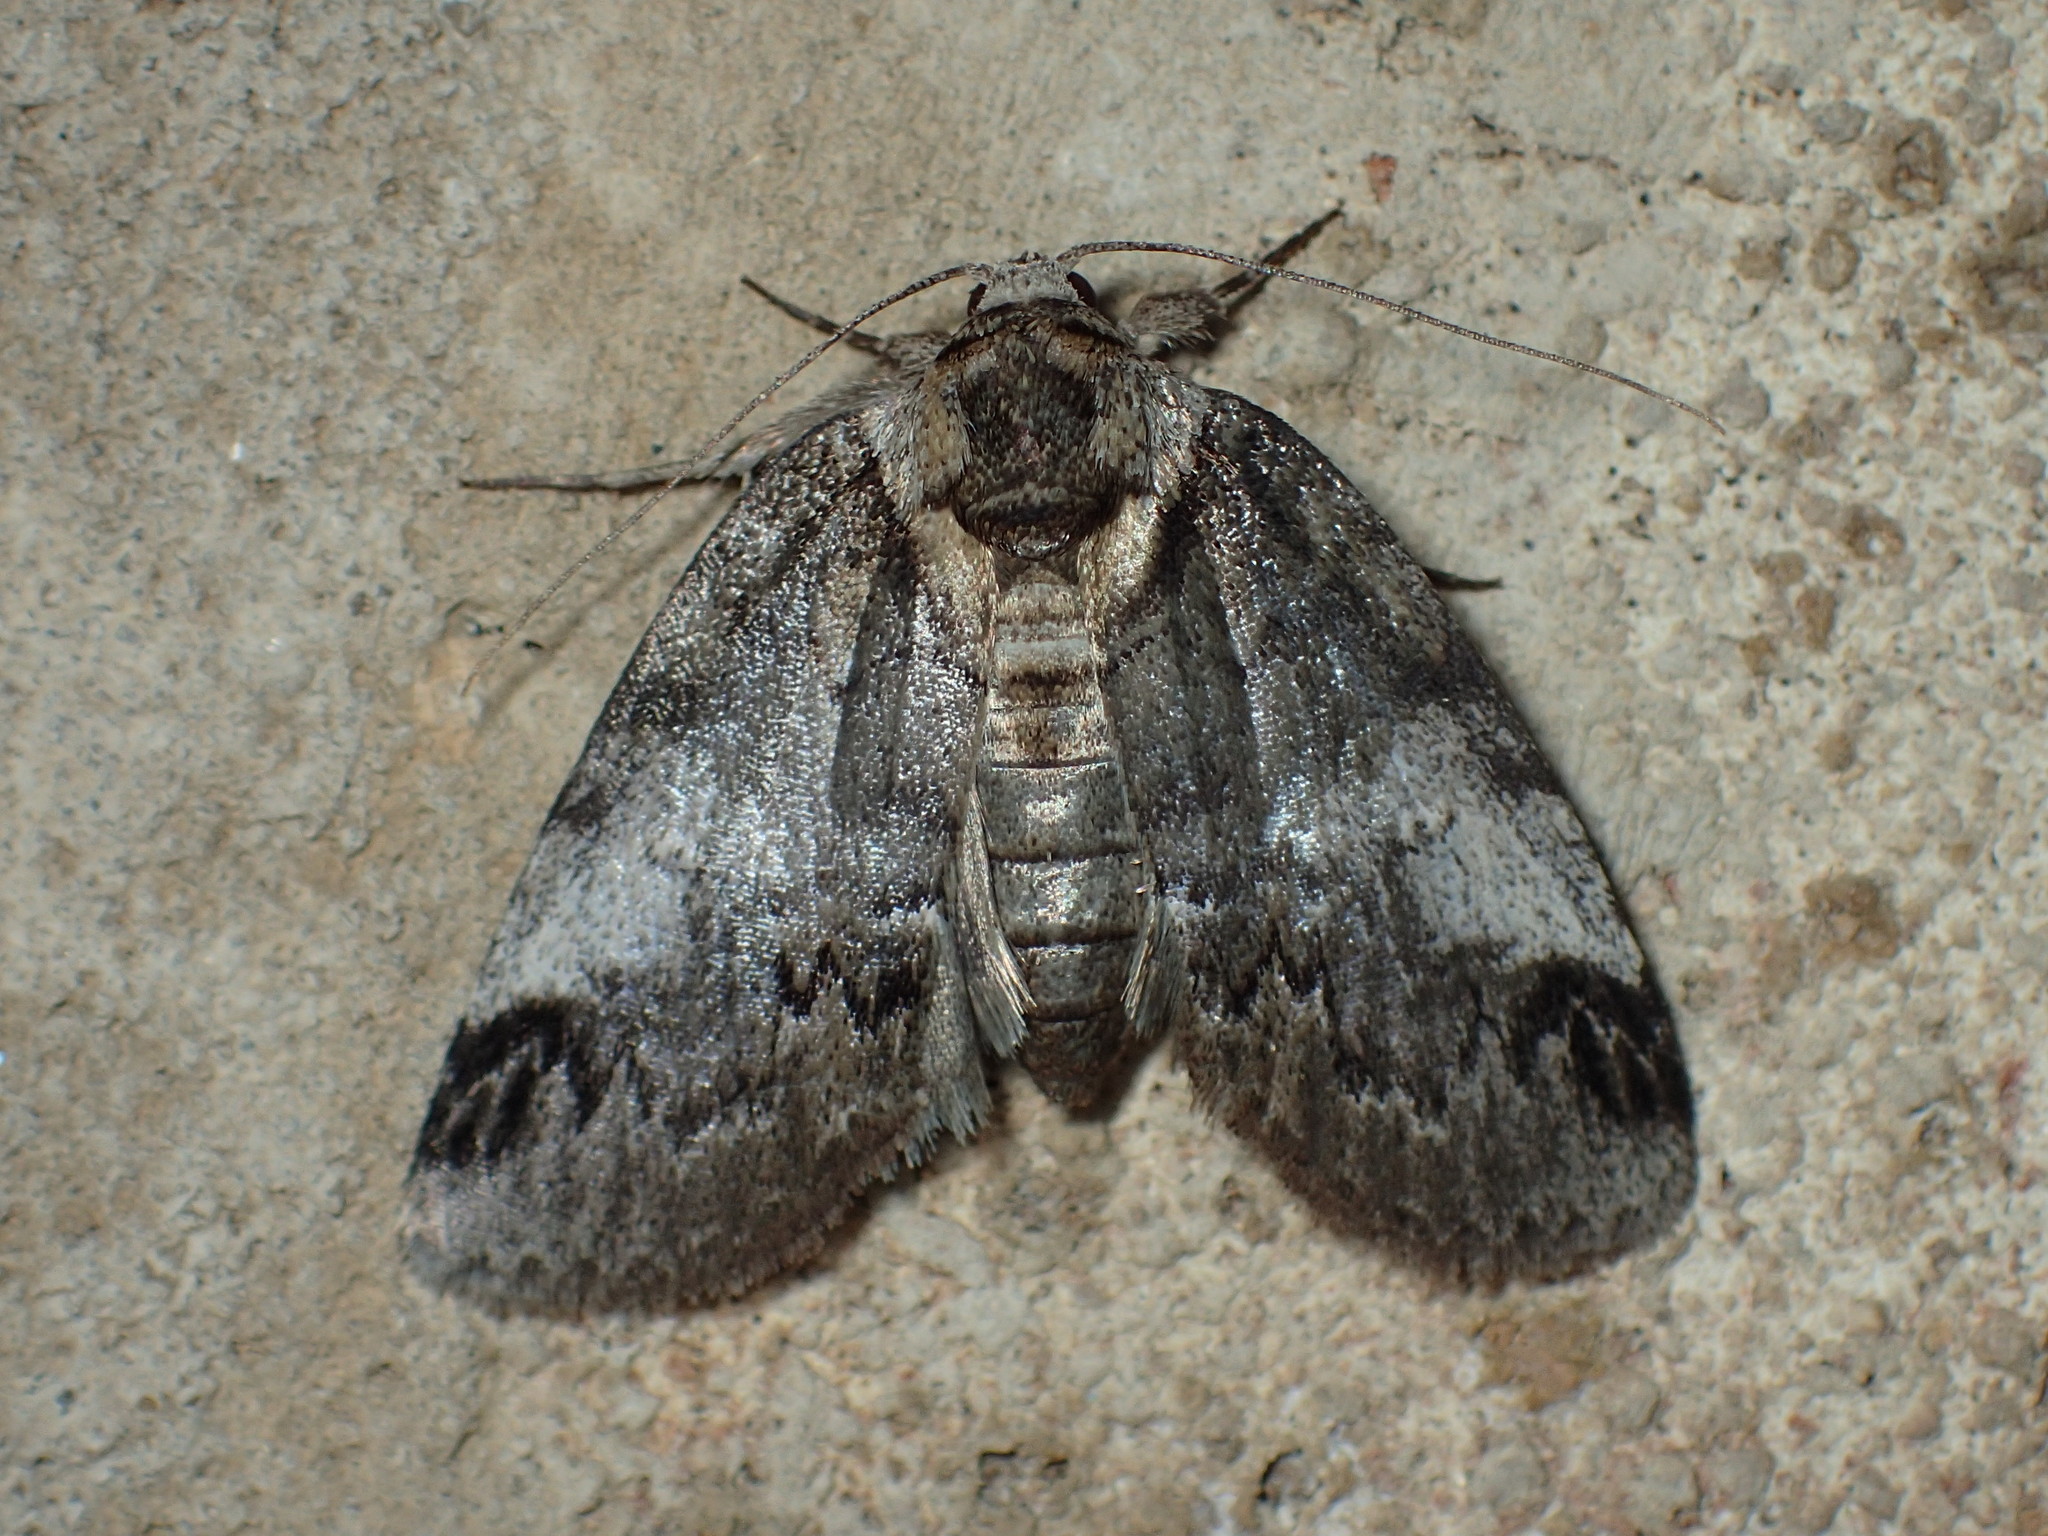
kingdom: Animalia
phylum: Arthropoda
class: Insecta
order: Lepidoptera
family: Nolidae
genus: Baileya
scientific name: Baileya acadiana
